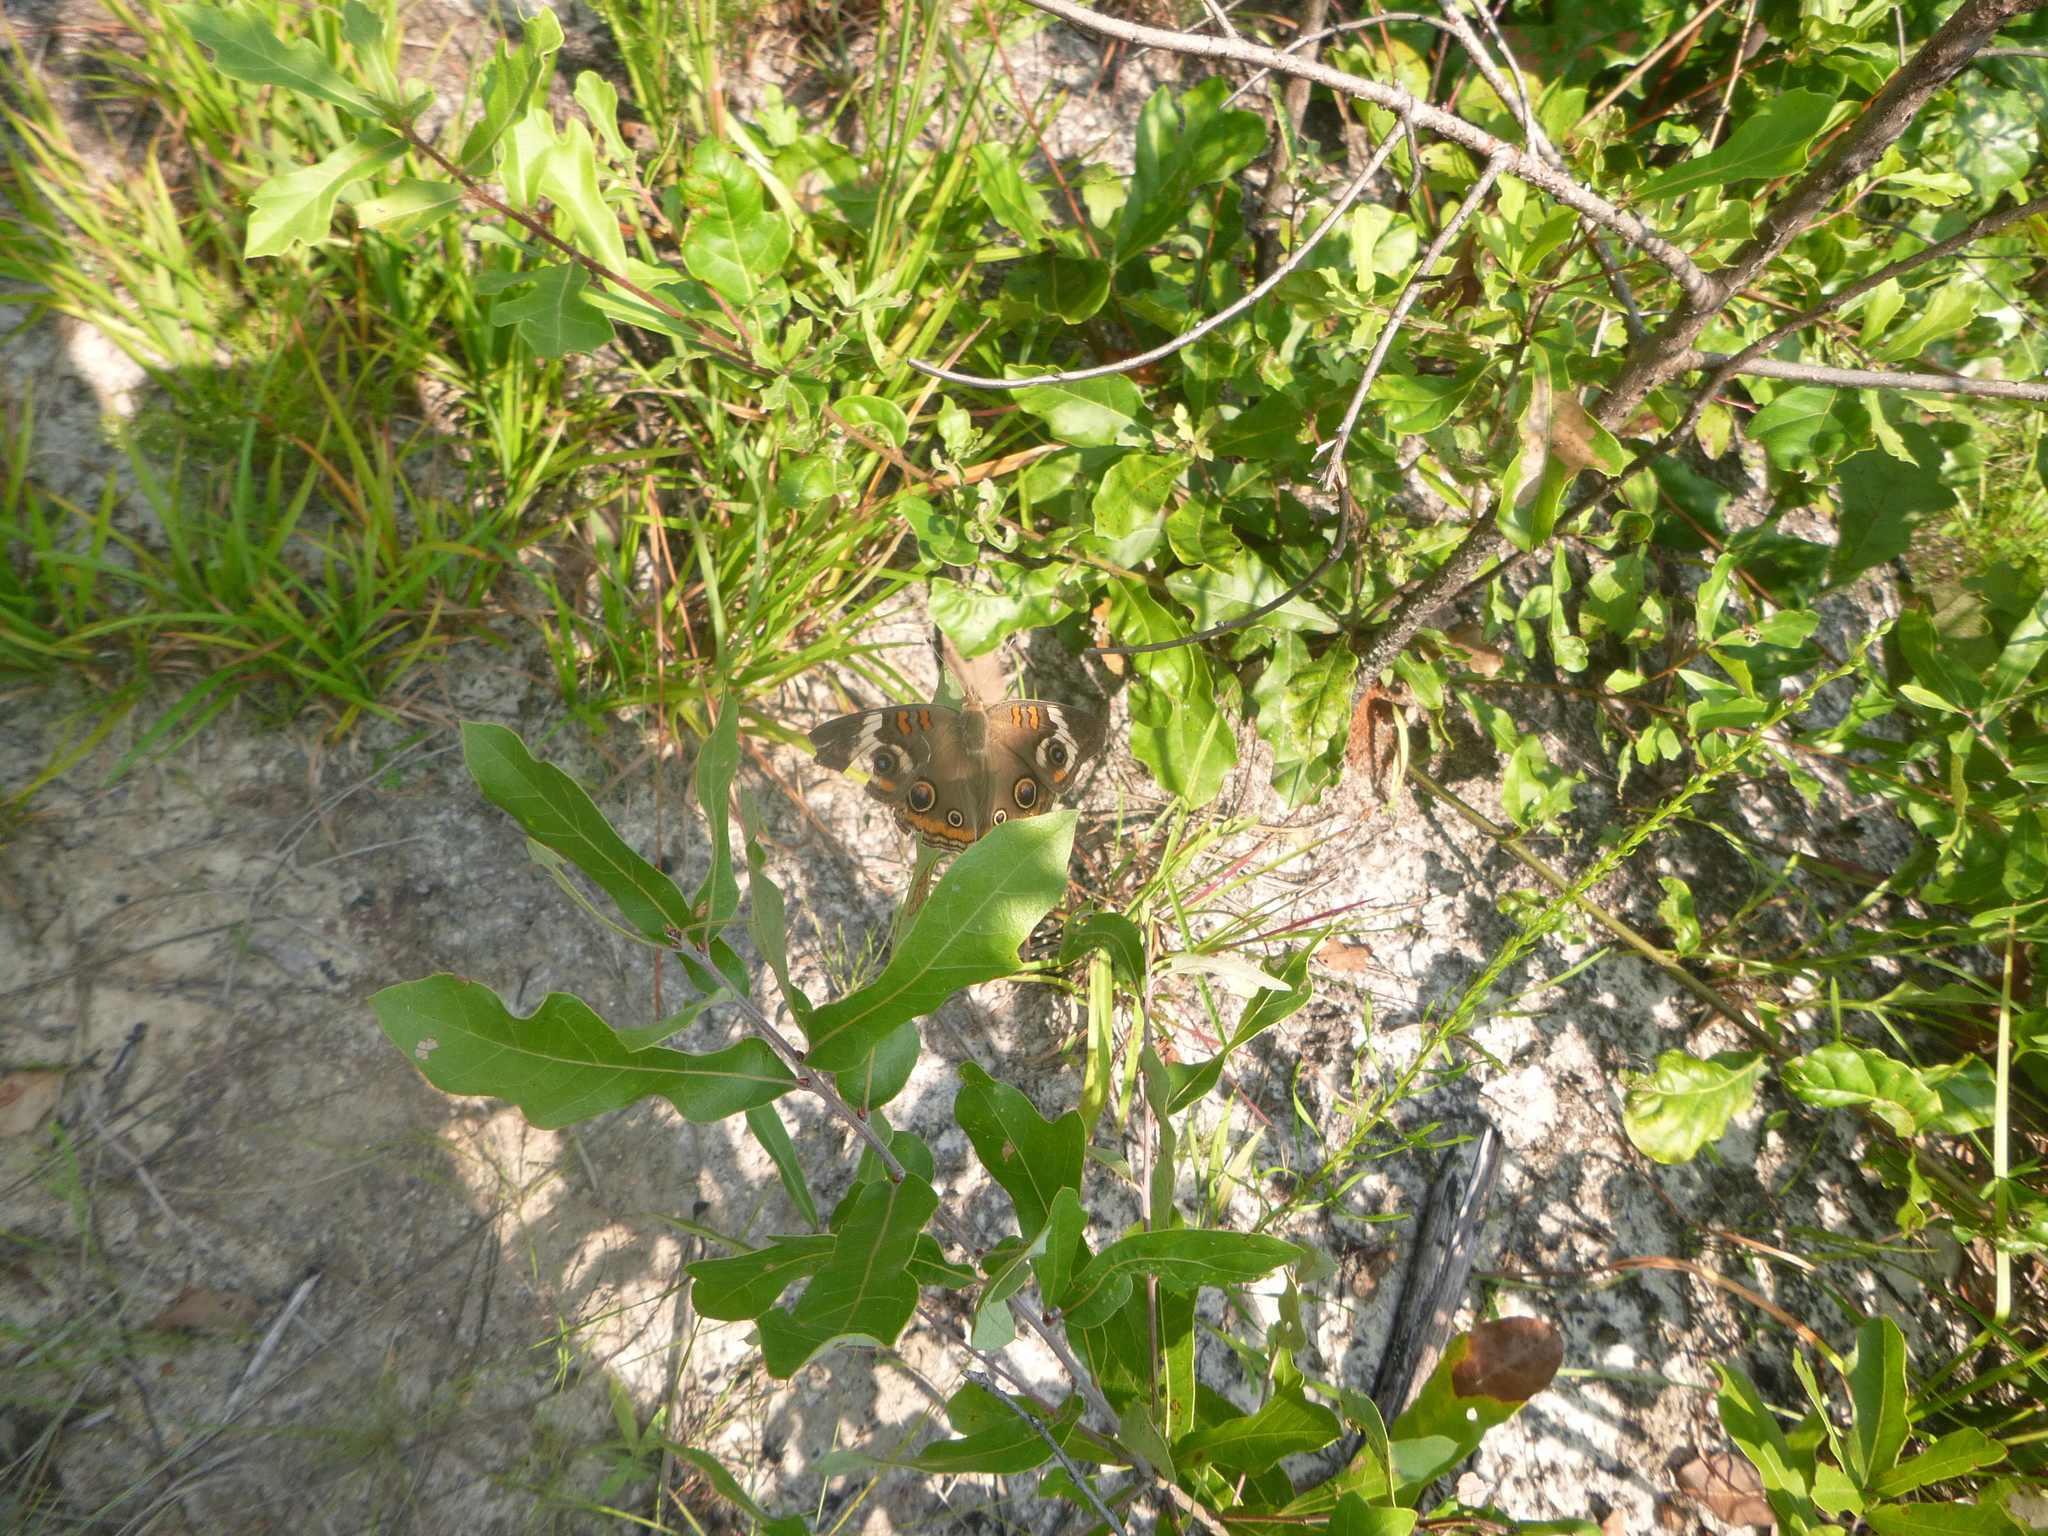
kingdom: Animalia
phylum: Arthropoda
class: Insecta
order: Lepidoptera
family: Nymphalidae
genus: Junonia
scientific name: Junonia coenia
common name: Common buckeye
